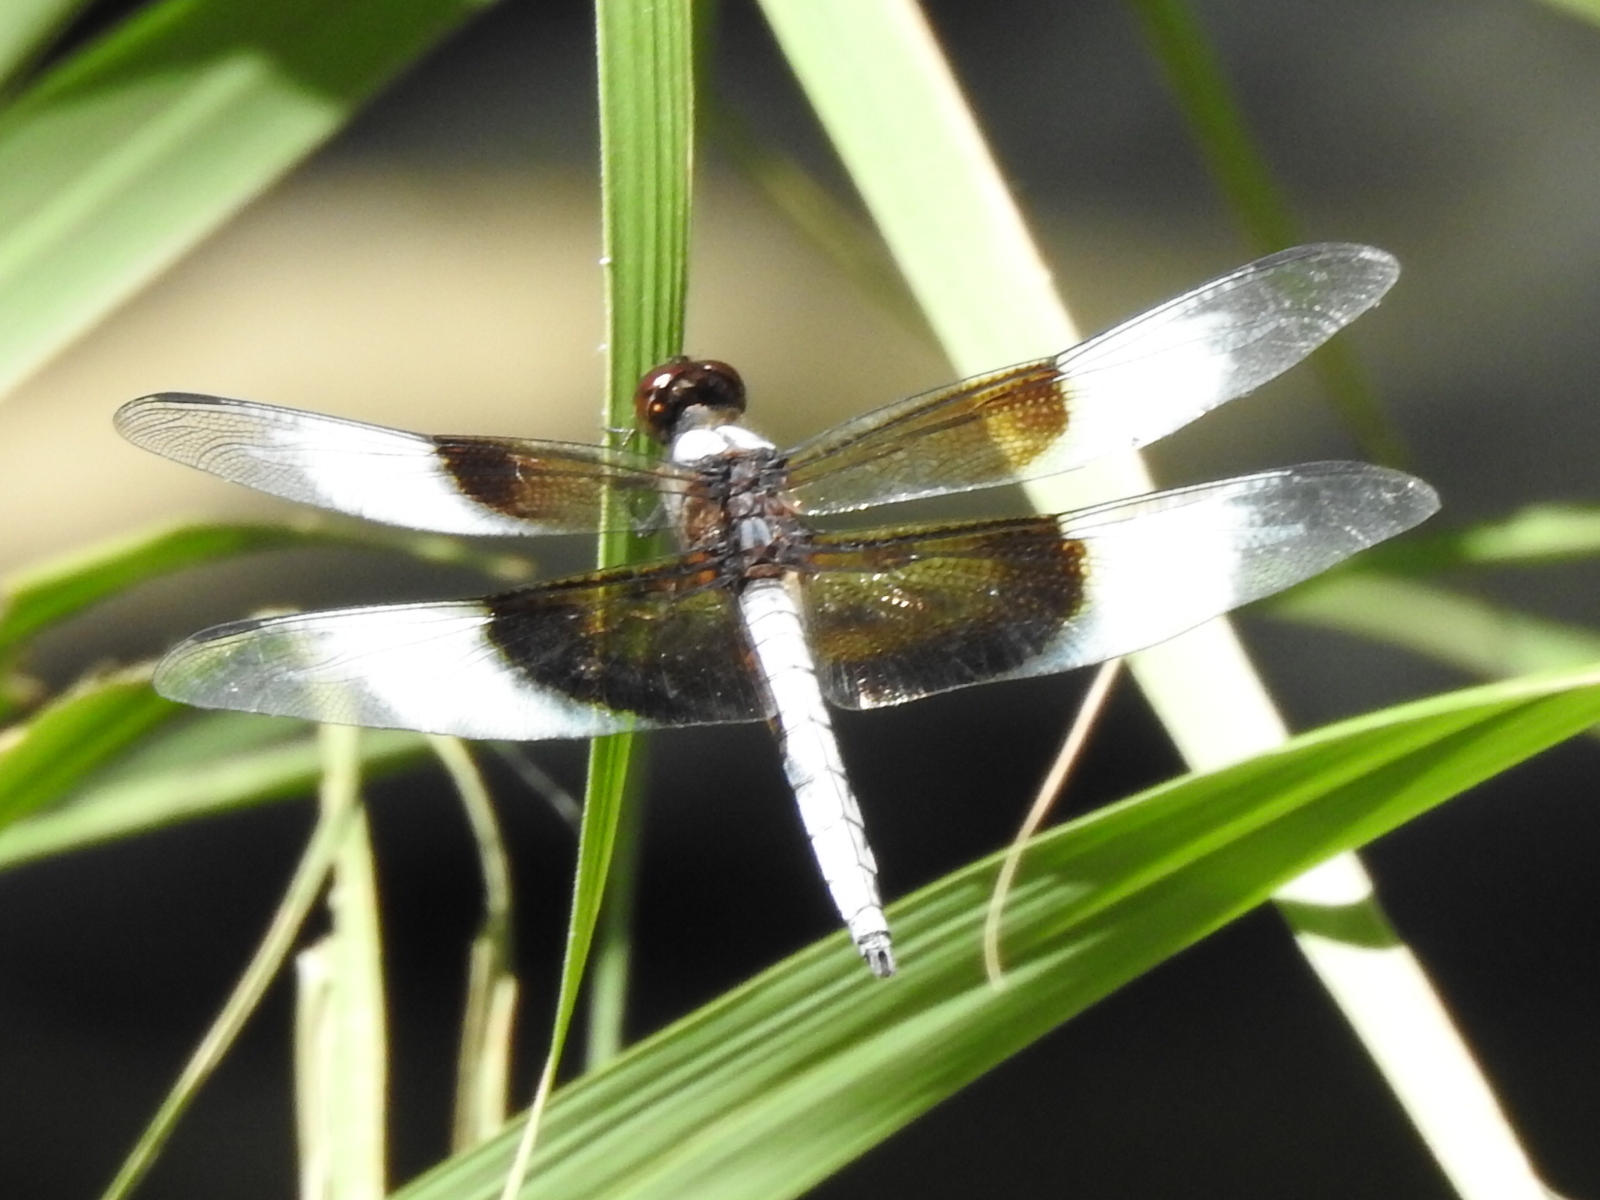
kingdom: Animalia
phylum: Arthropoda
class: Insecta
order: Odonata
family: Libellulidae
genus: Libellula
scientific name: Libellula luctuosa
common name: Widow skimmer
